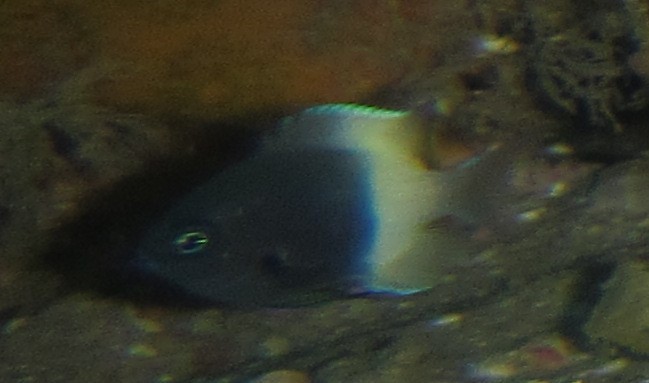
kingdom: Animalia
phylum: Chordata
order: Perciformes
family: Pomacentridae
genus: Chromis
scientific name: Chromis fieldi
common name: Chocolatedip chromis
